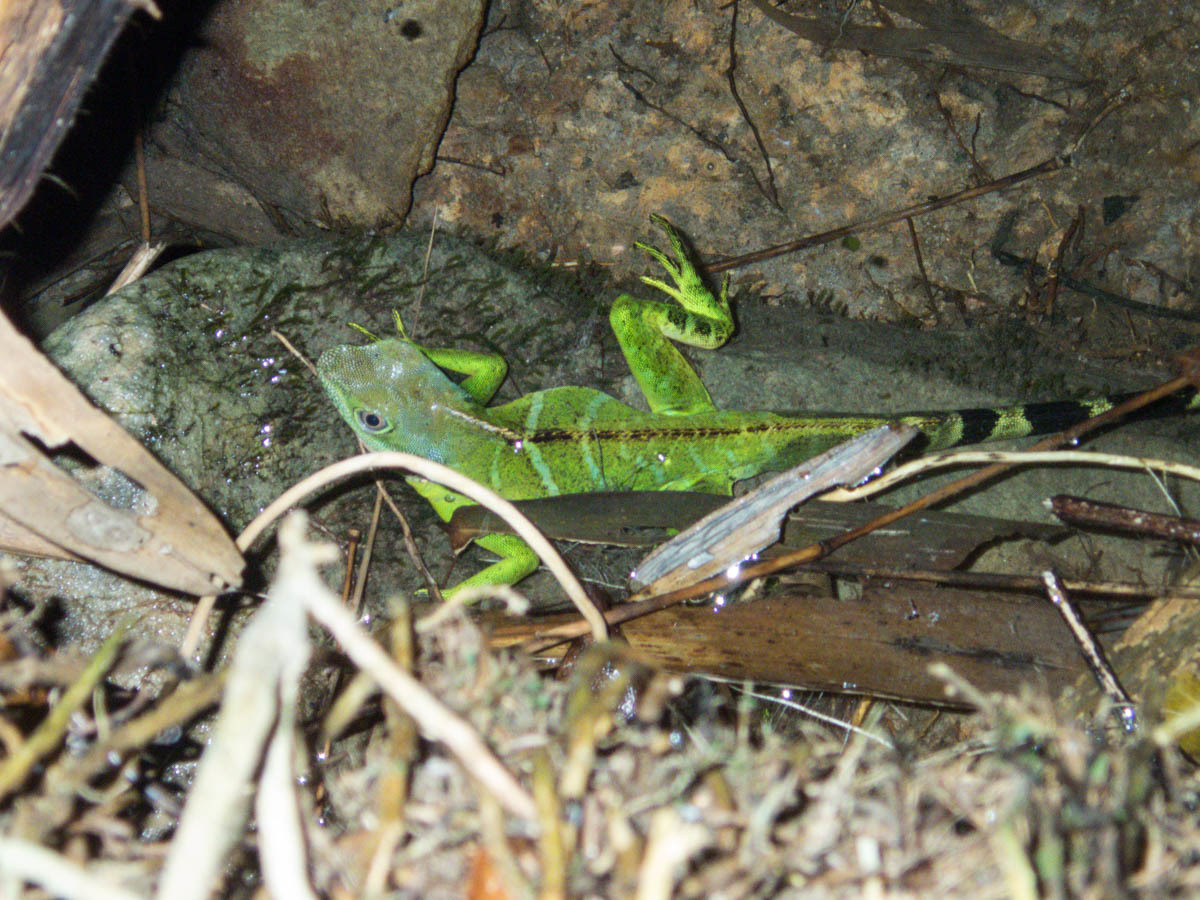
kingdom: Animalia
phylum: Chordata
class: Squamata
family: Agamidae
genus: Physignathus
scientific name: Physignathus cocincinus
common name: Asian water dragon
